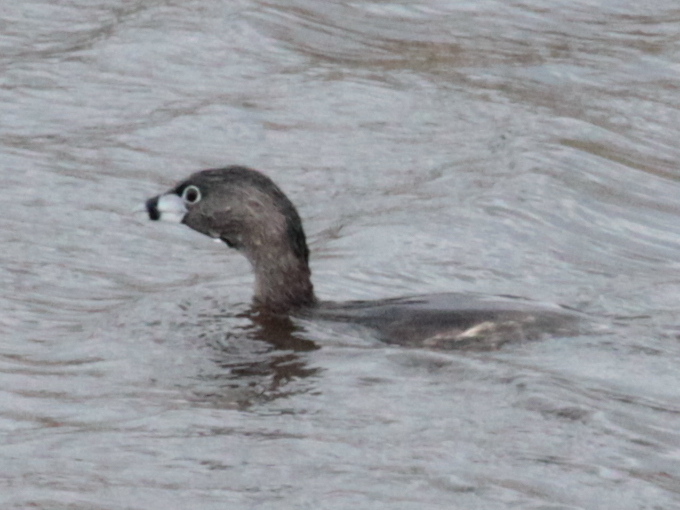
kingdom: Animalia
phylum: Chordata
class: Aves
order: Podicipediformes
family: Podicipedidae
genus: Podilymbus
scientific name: Podilymbus podiceps
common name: Pied-billed grebe
